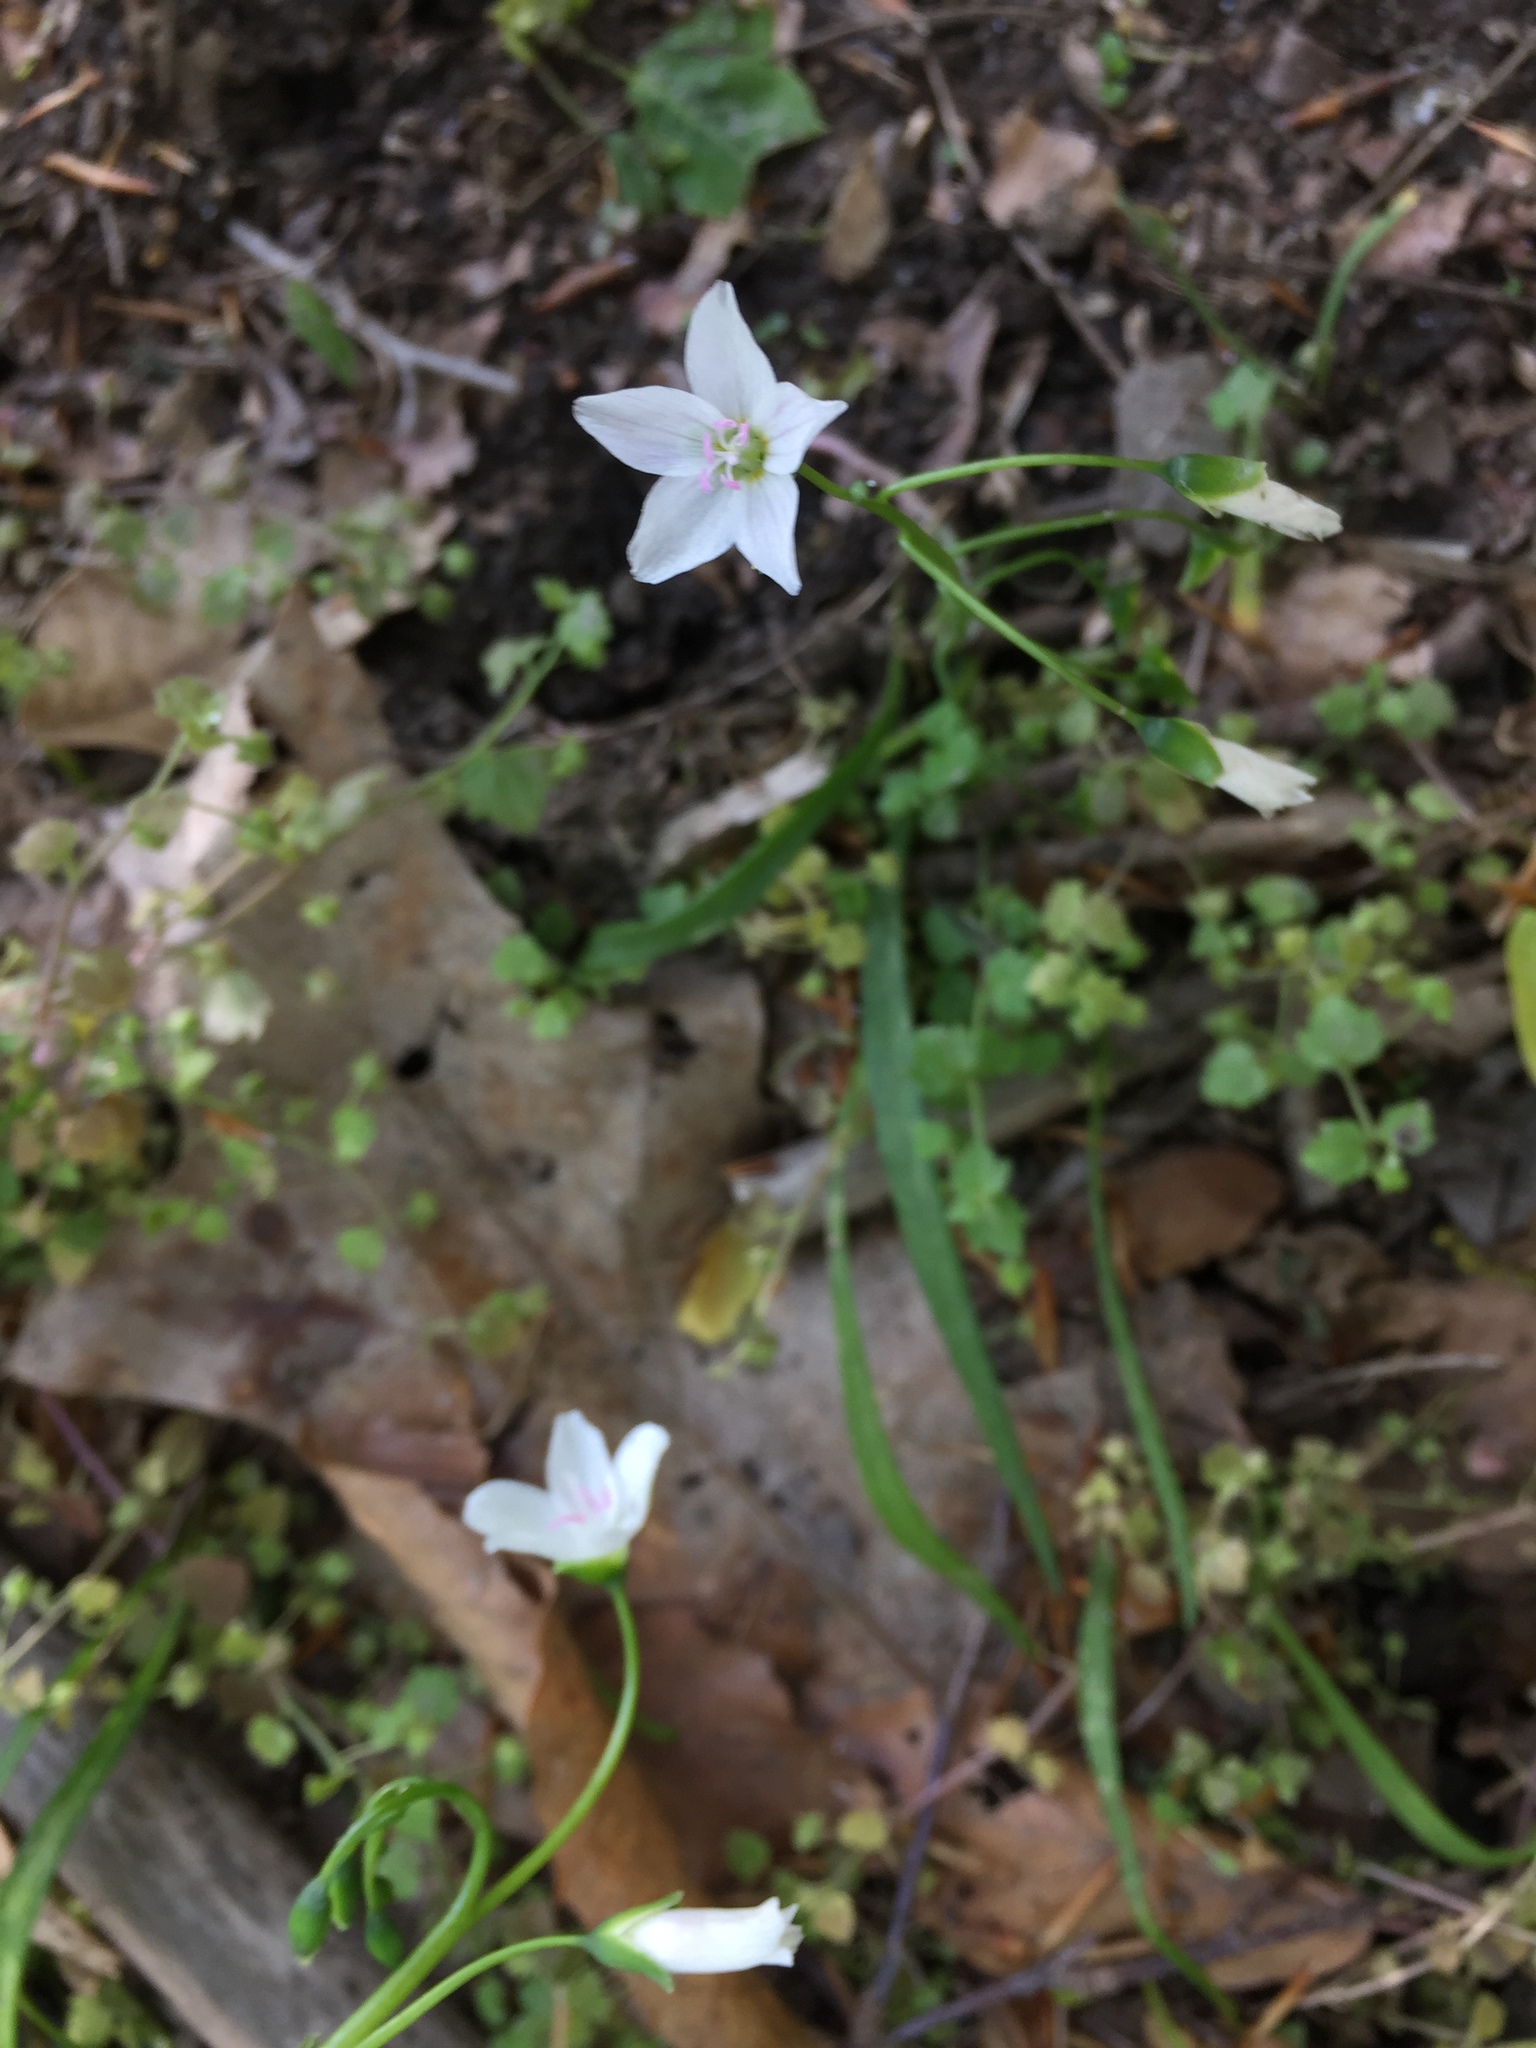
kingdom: Plantae
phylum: Tracheophyta
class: Magnoliopsida
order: Caryophyllales
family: Montiaceae
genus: Claytonia
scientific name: Claytonia virginica
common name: Virginia springbeauty
